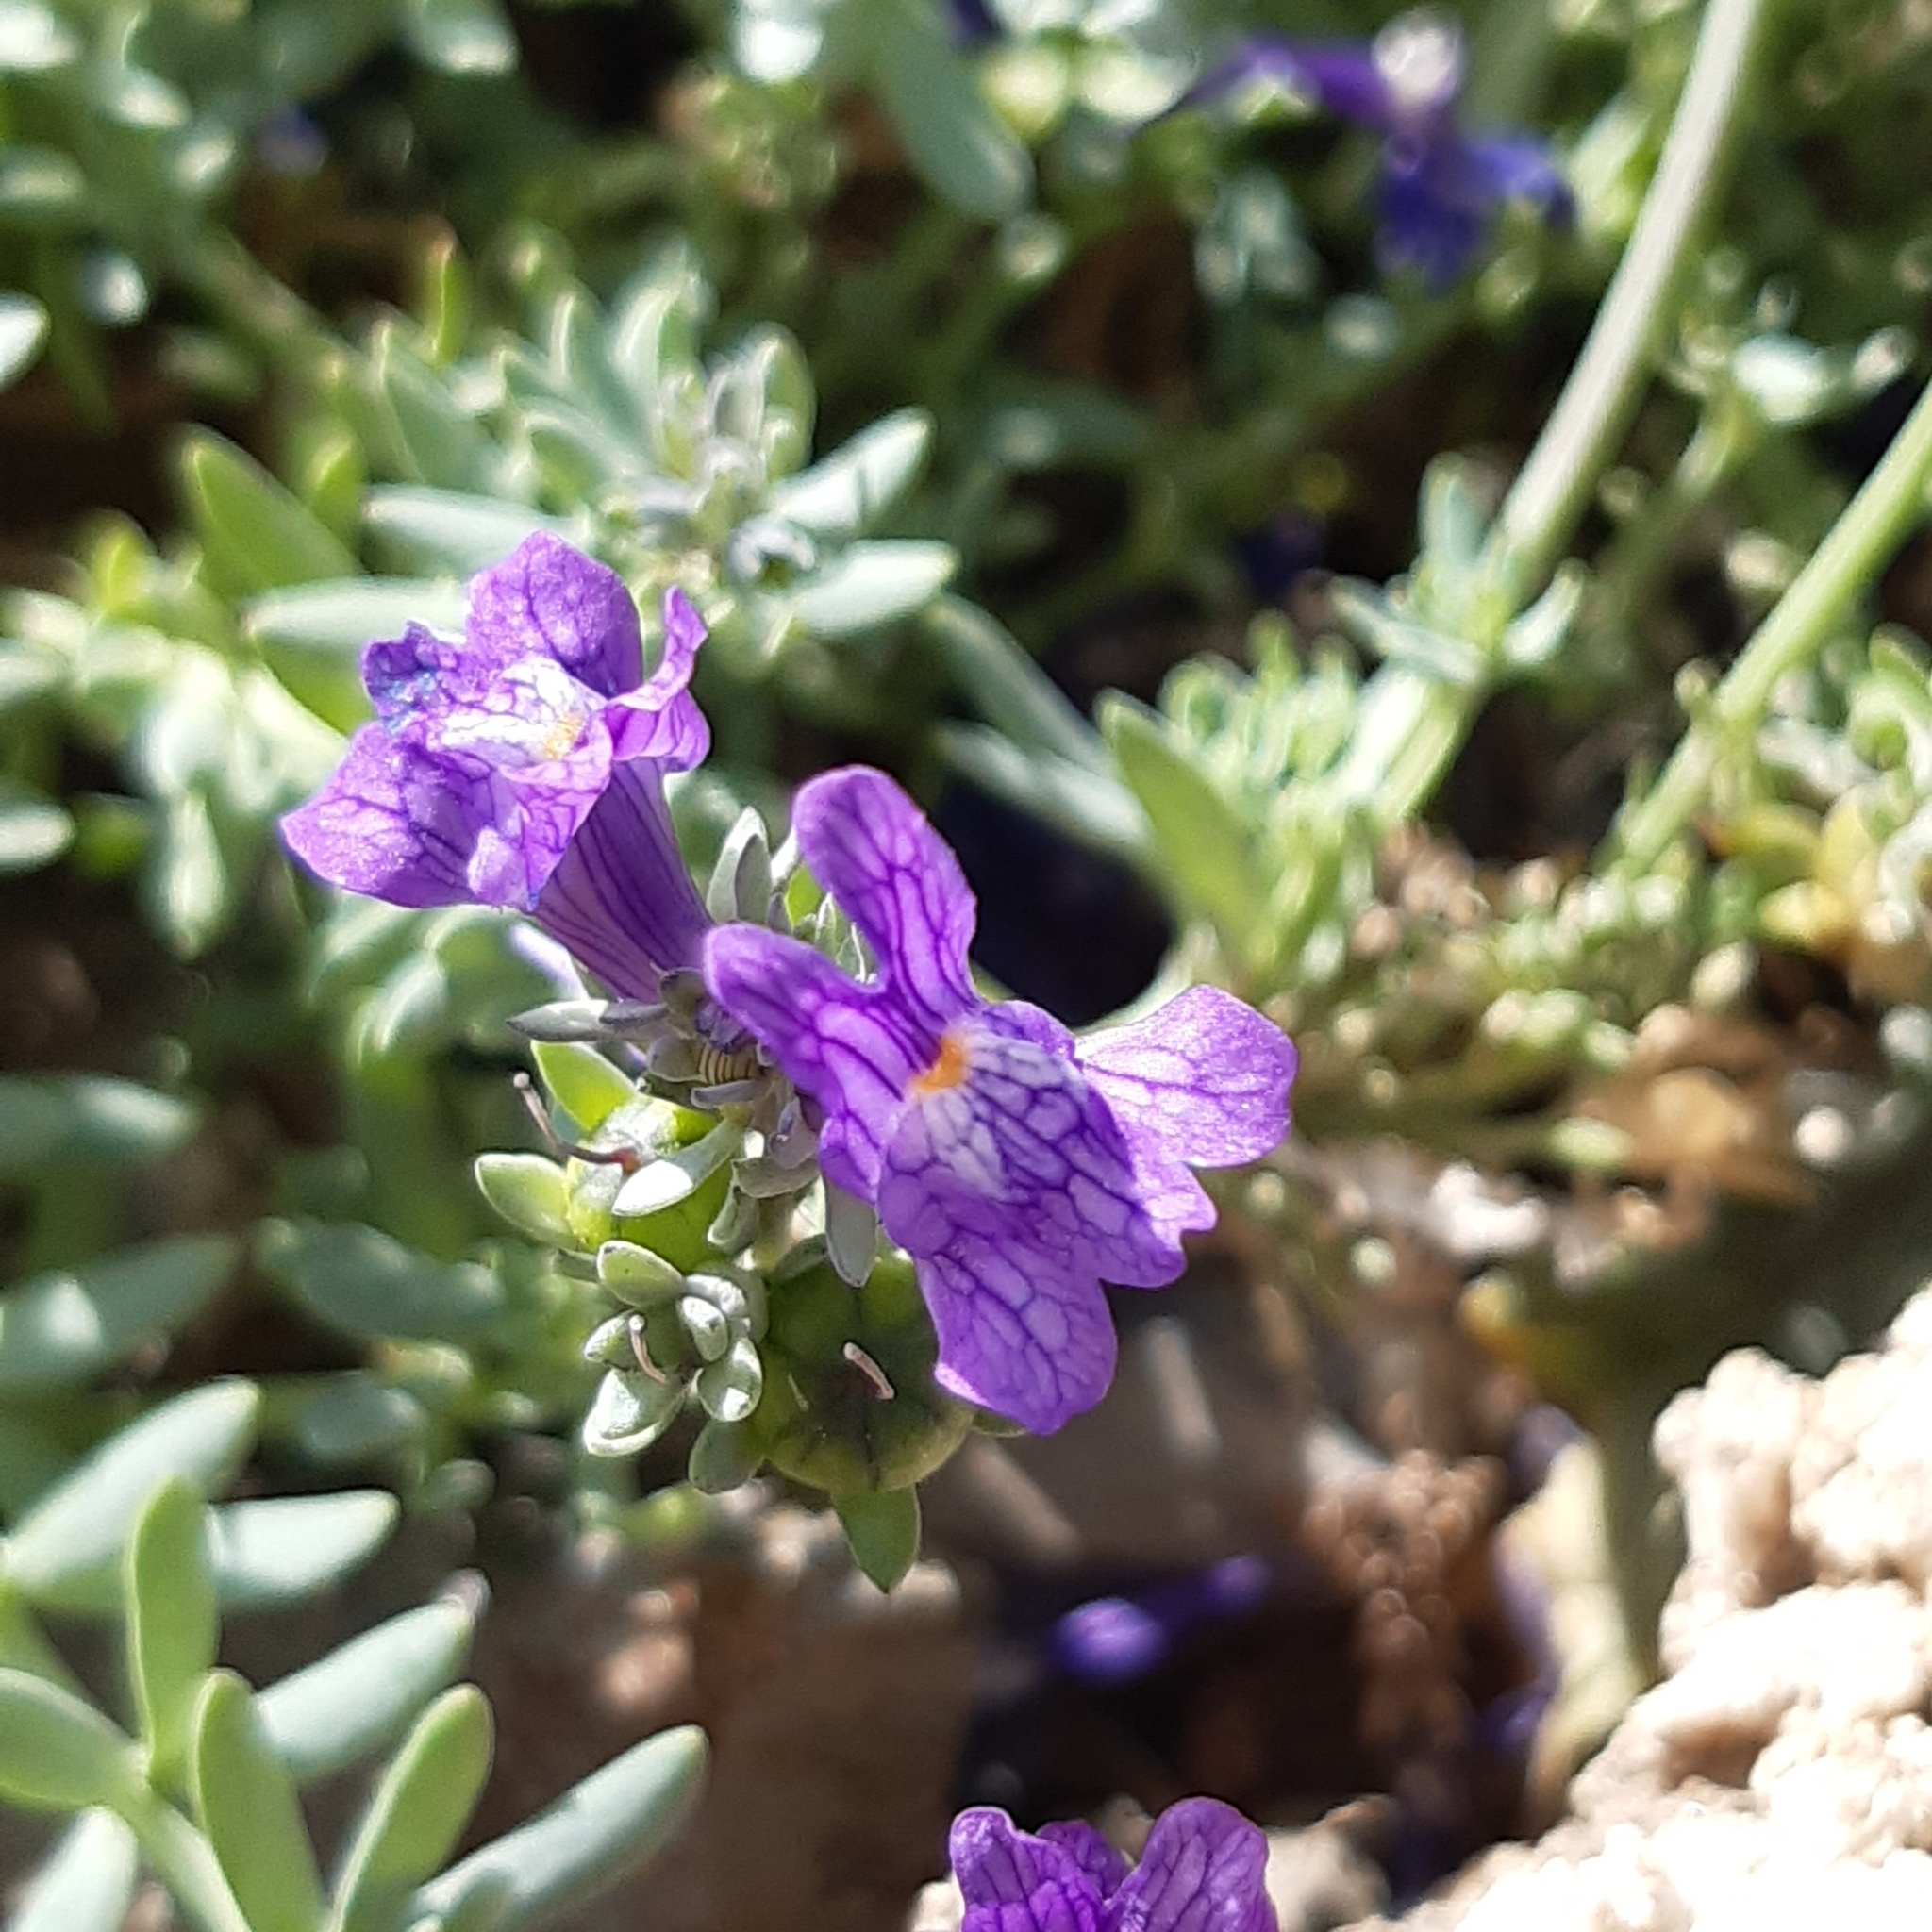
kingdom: Plantae
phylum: Tracheophyta
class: Magnoliopsida
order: Lamiales
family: Plantaginaceae
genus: Linaria
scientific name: Linaria alpina
